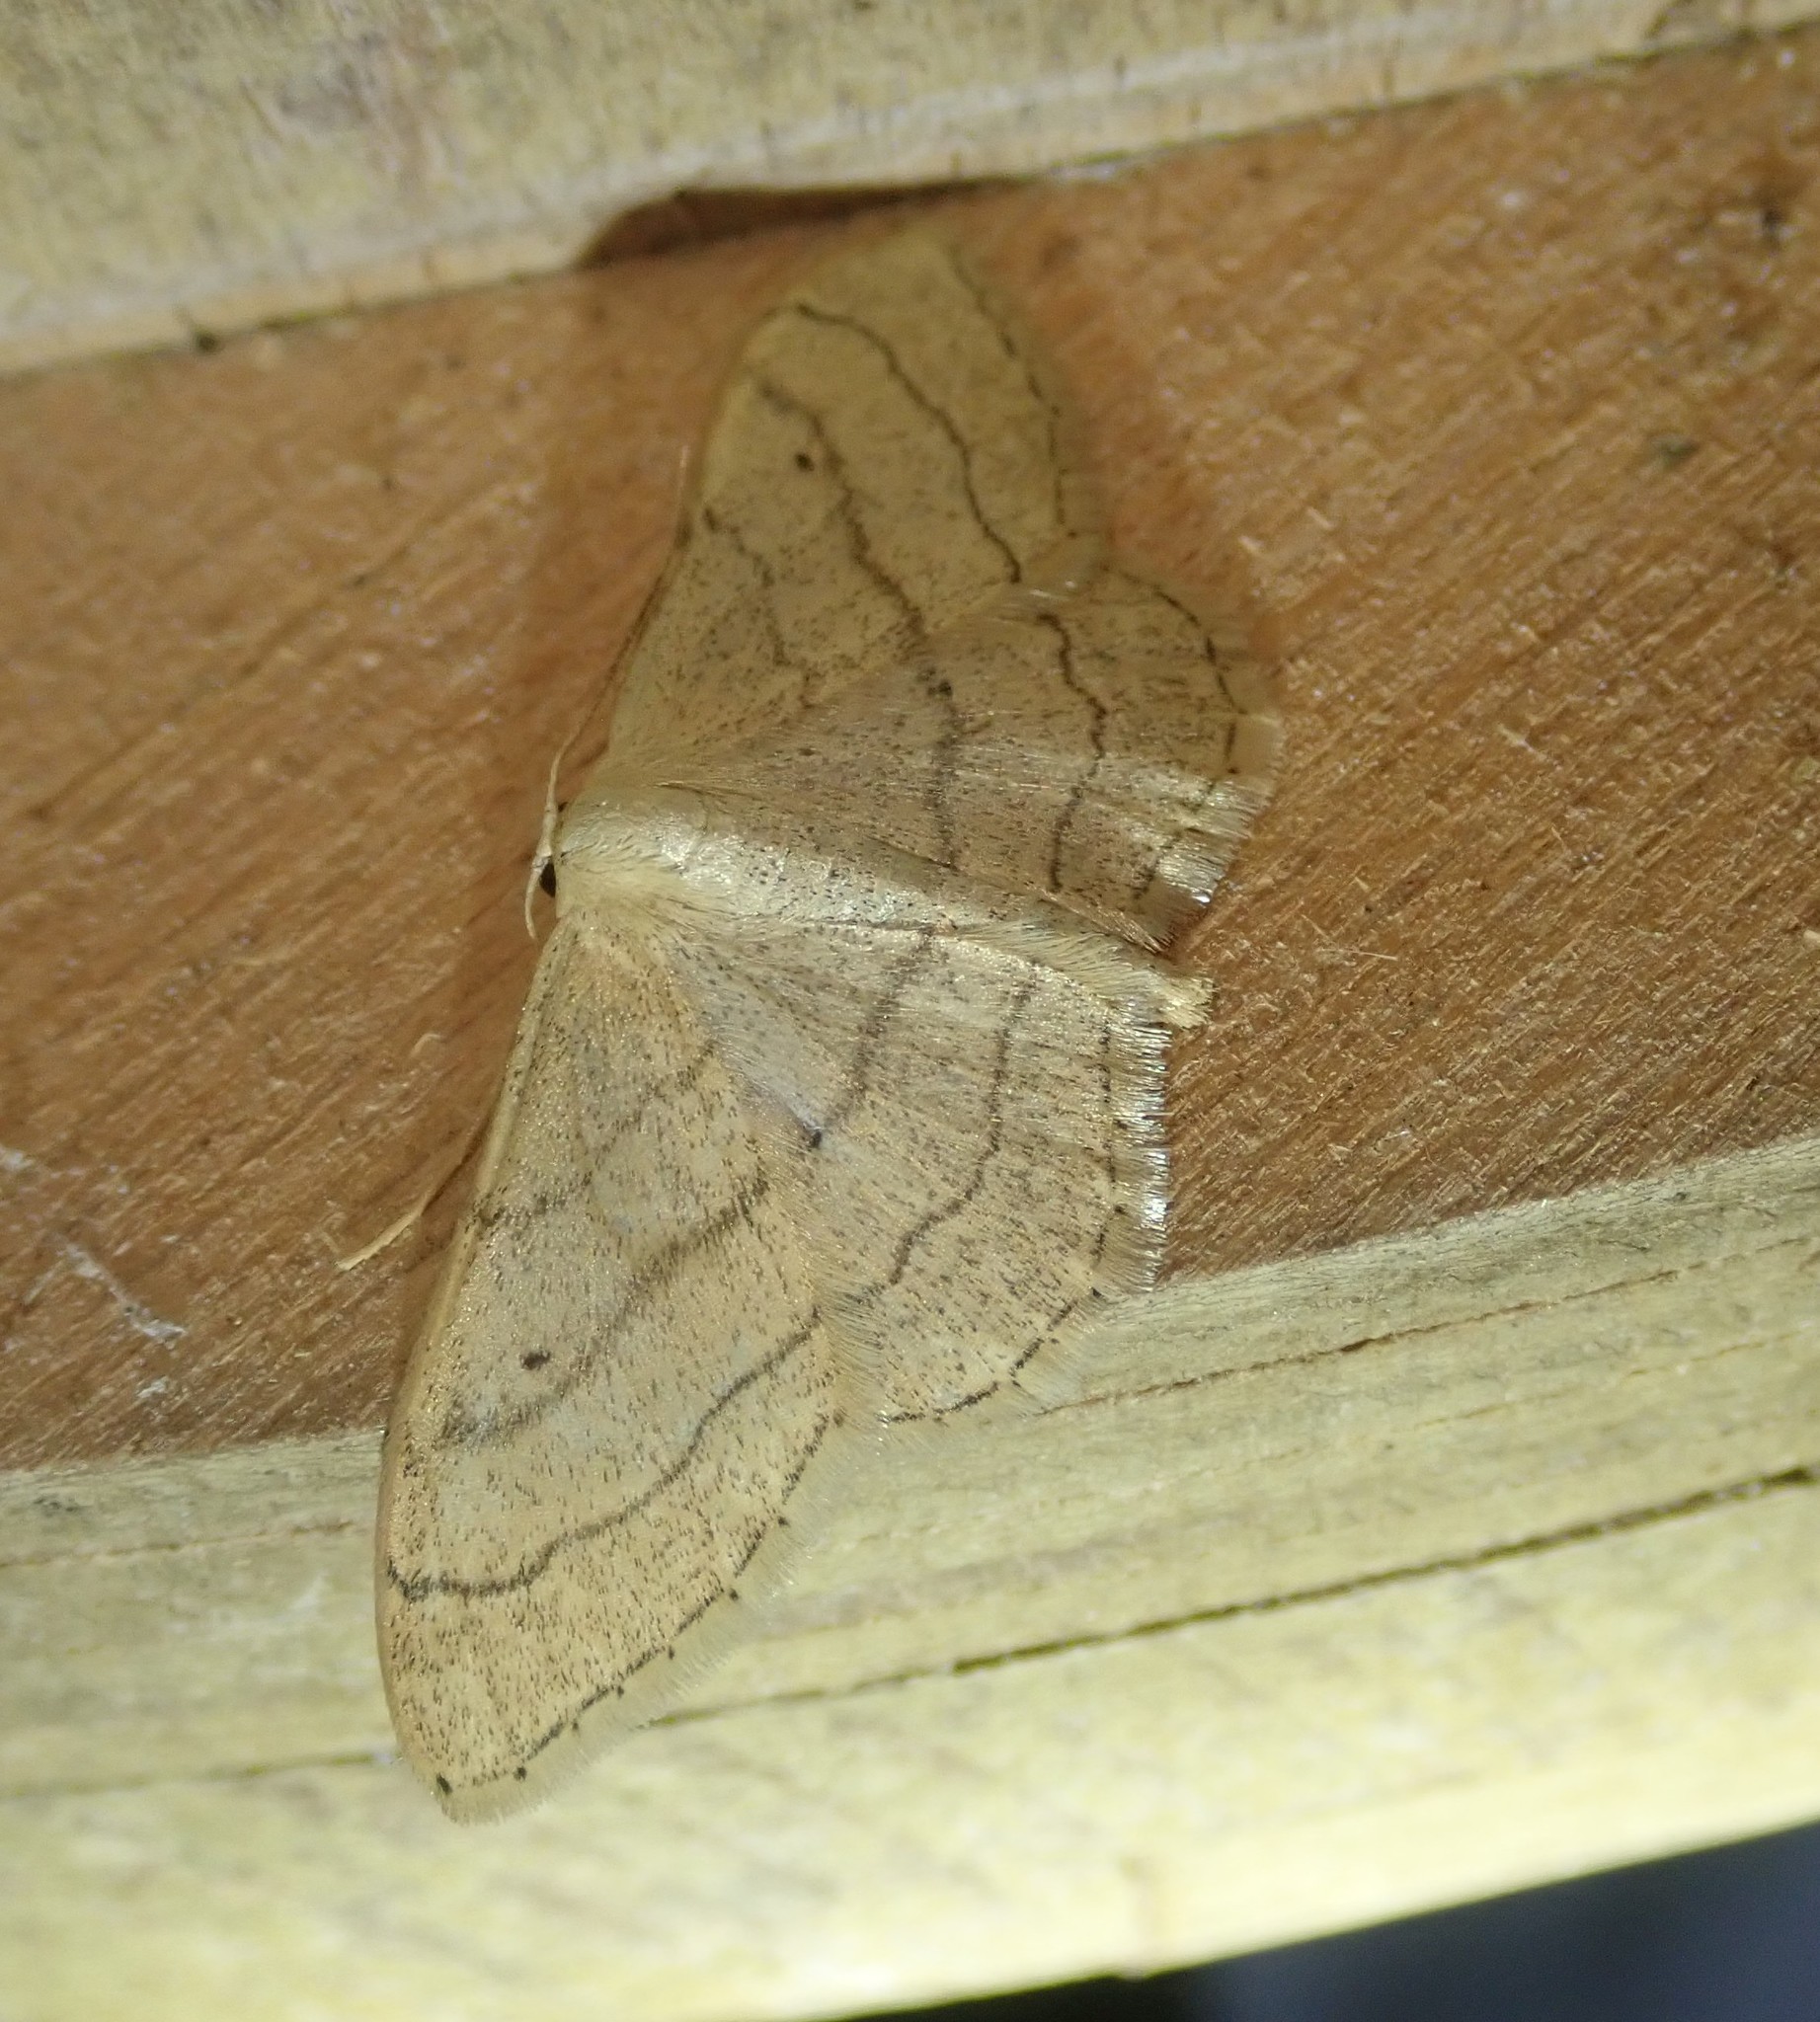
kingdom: Animalia
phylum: Arthropoda
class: Insecta
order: Lepidoptera
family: Geometridae
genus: Idaea
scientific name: Idaea aversata
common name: Riband wave
